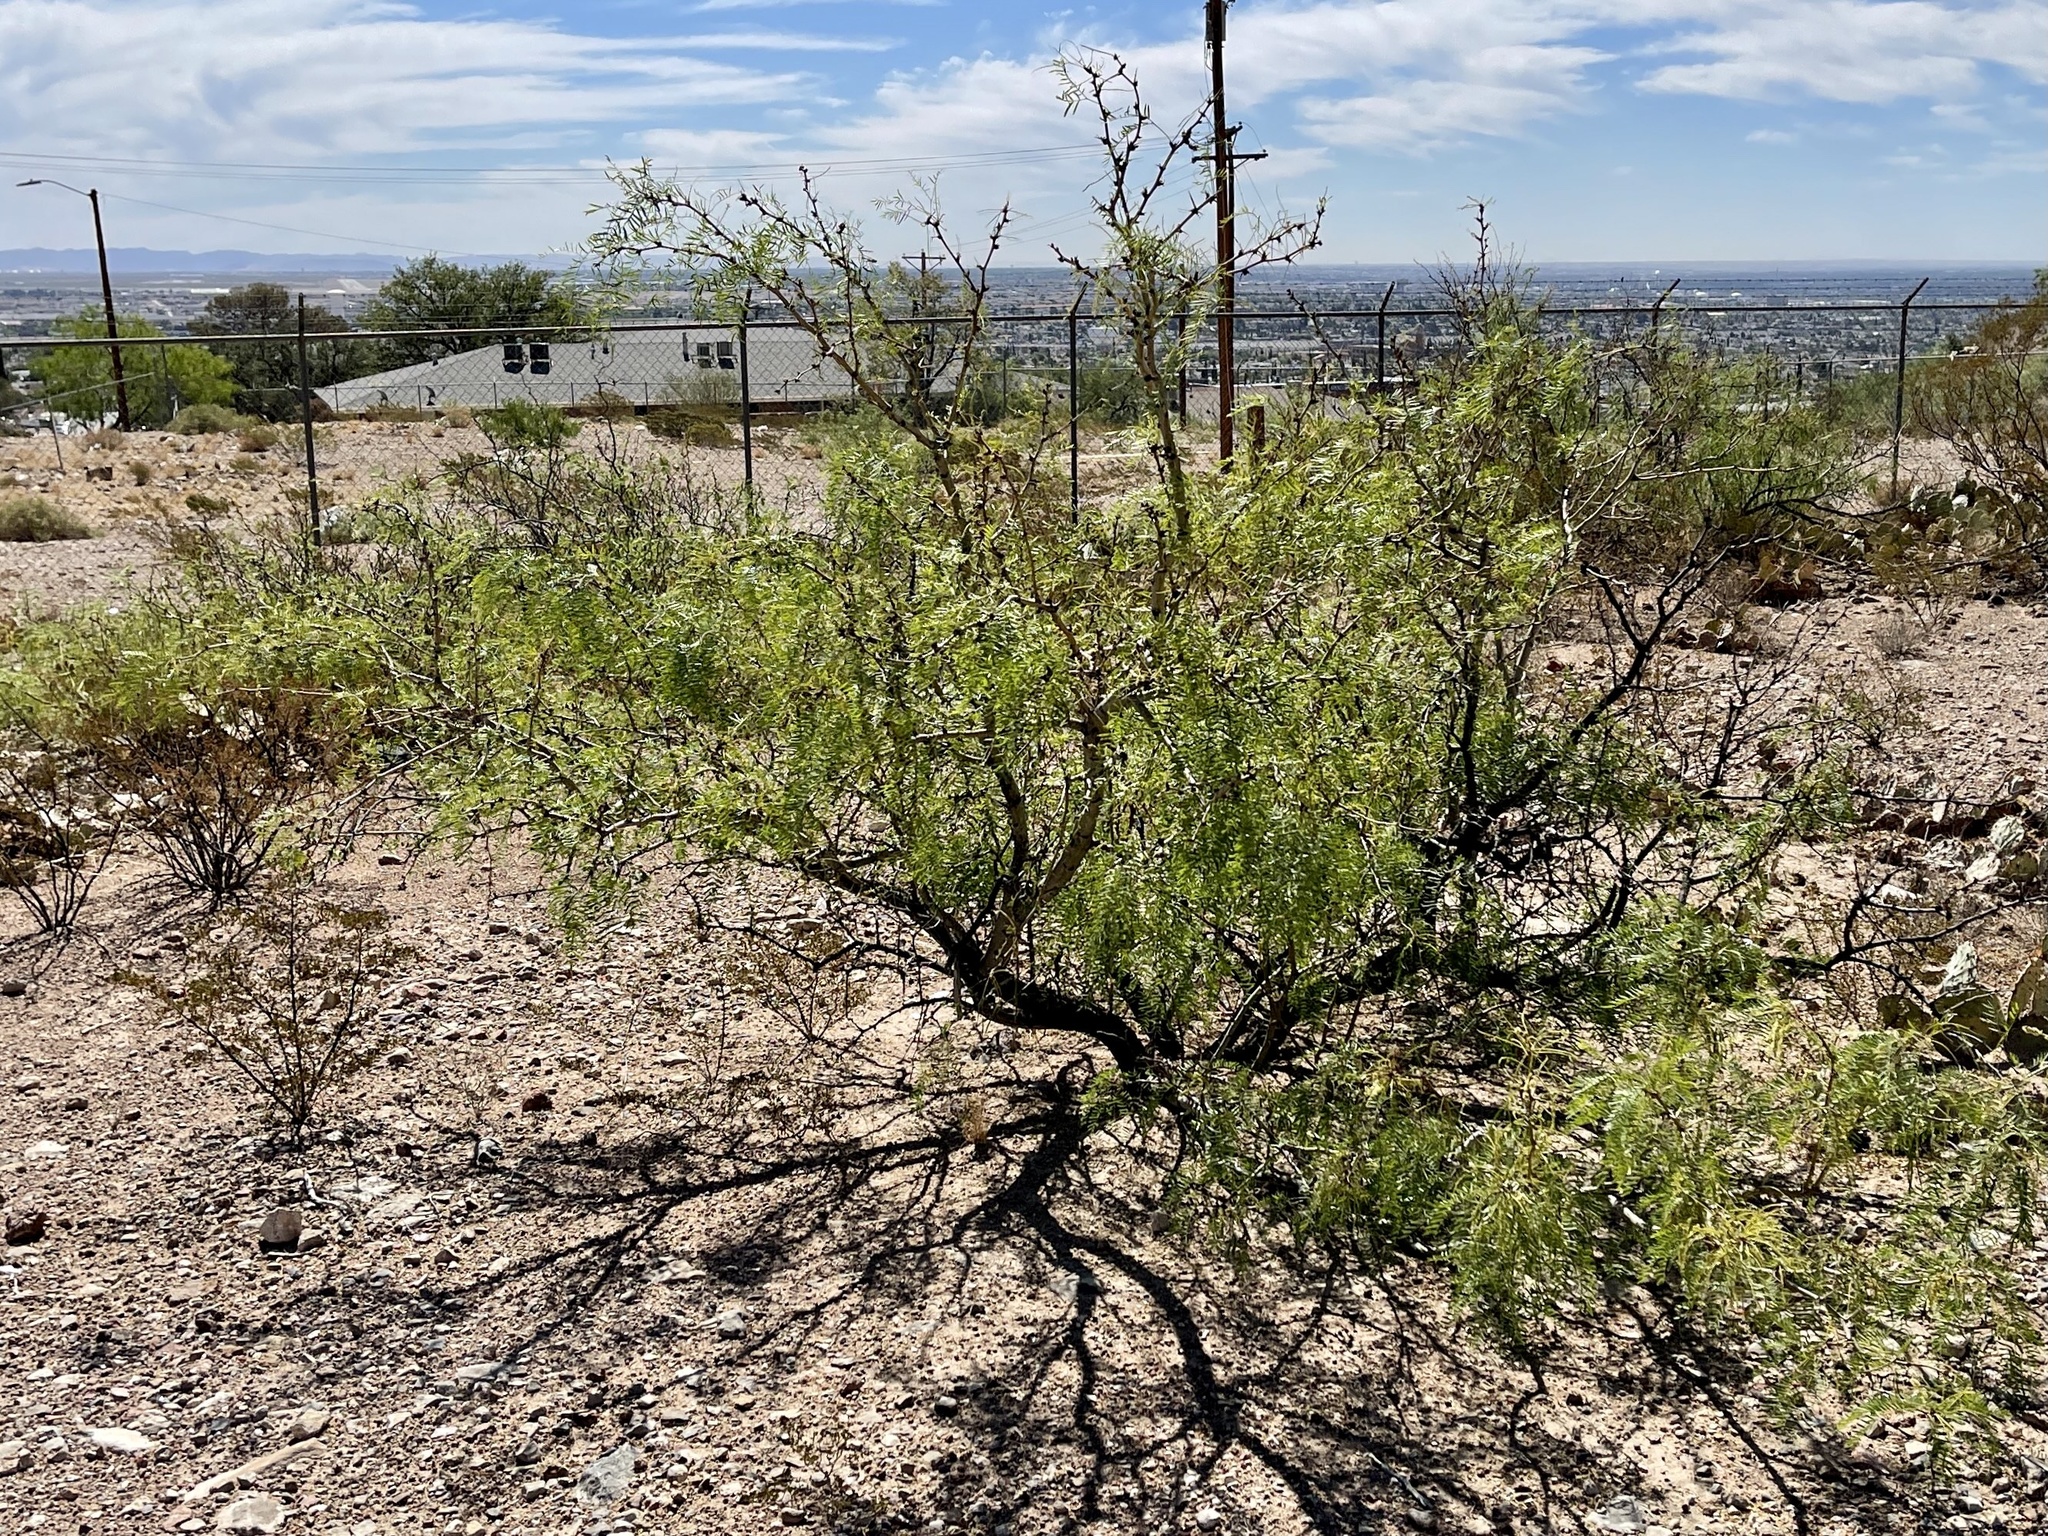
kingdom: Plantae
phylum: Tracheophyta
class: Magnoliopsida
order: Fabales
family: Fabaceae
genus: Prosopis
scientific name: Prosopis glandulosa
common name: Honey mesquite
